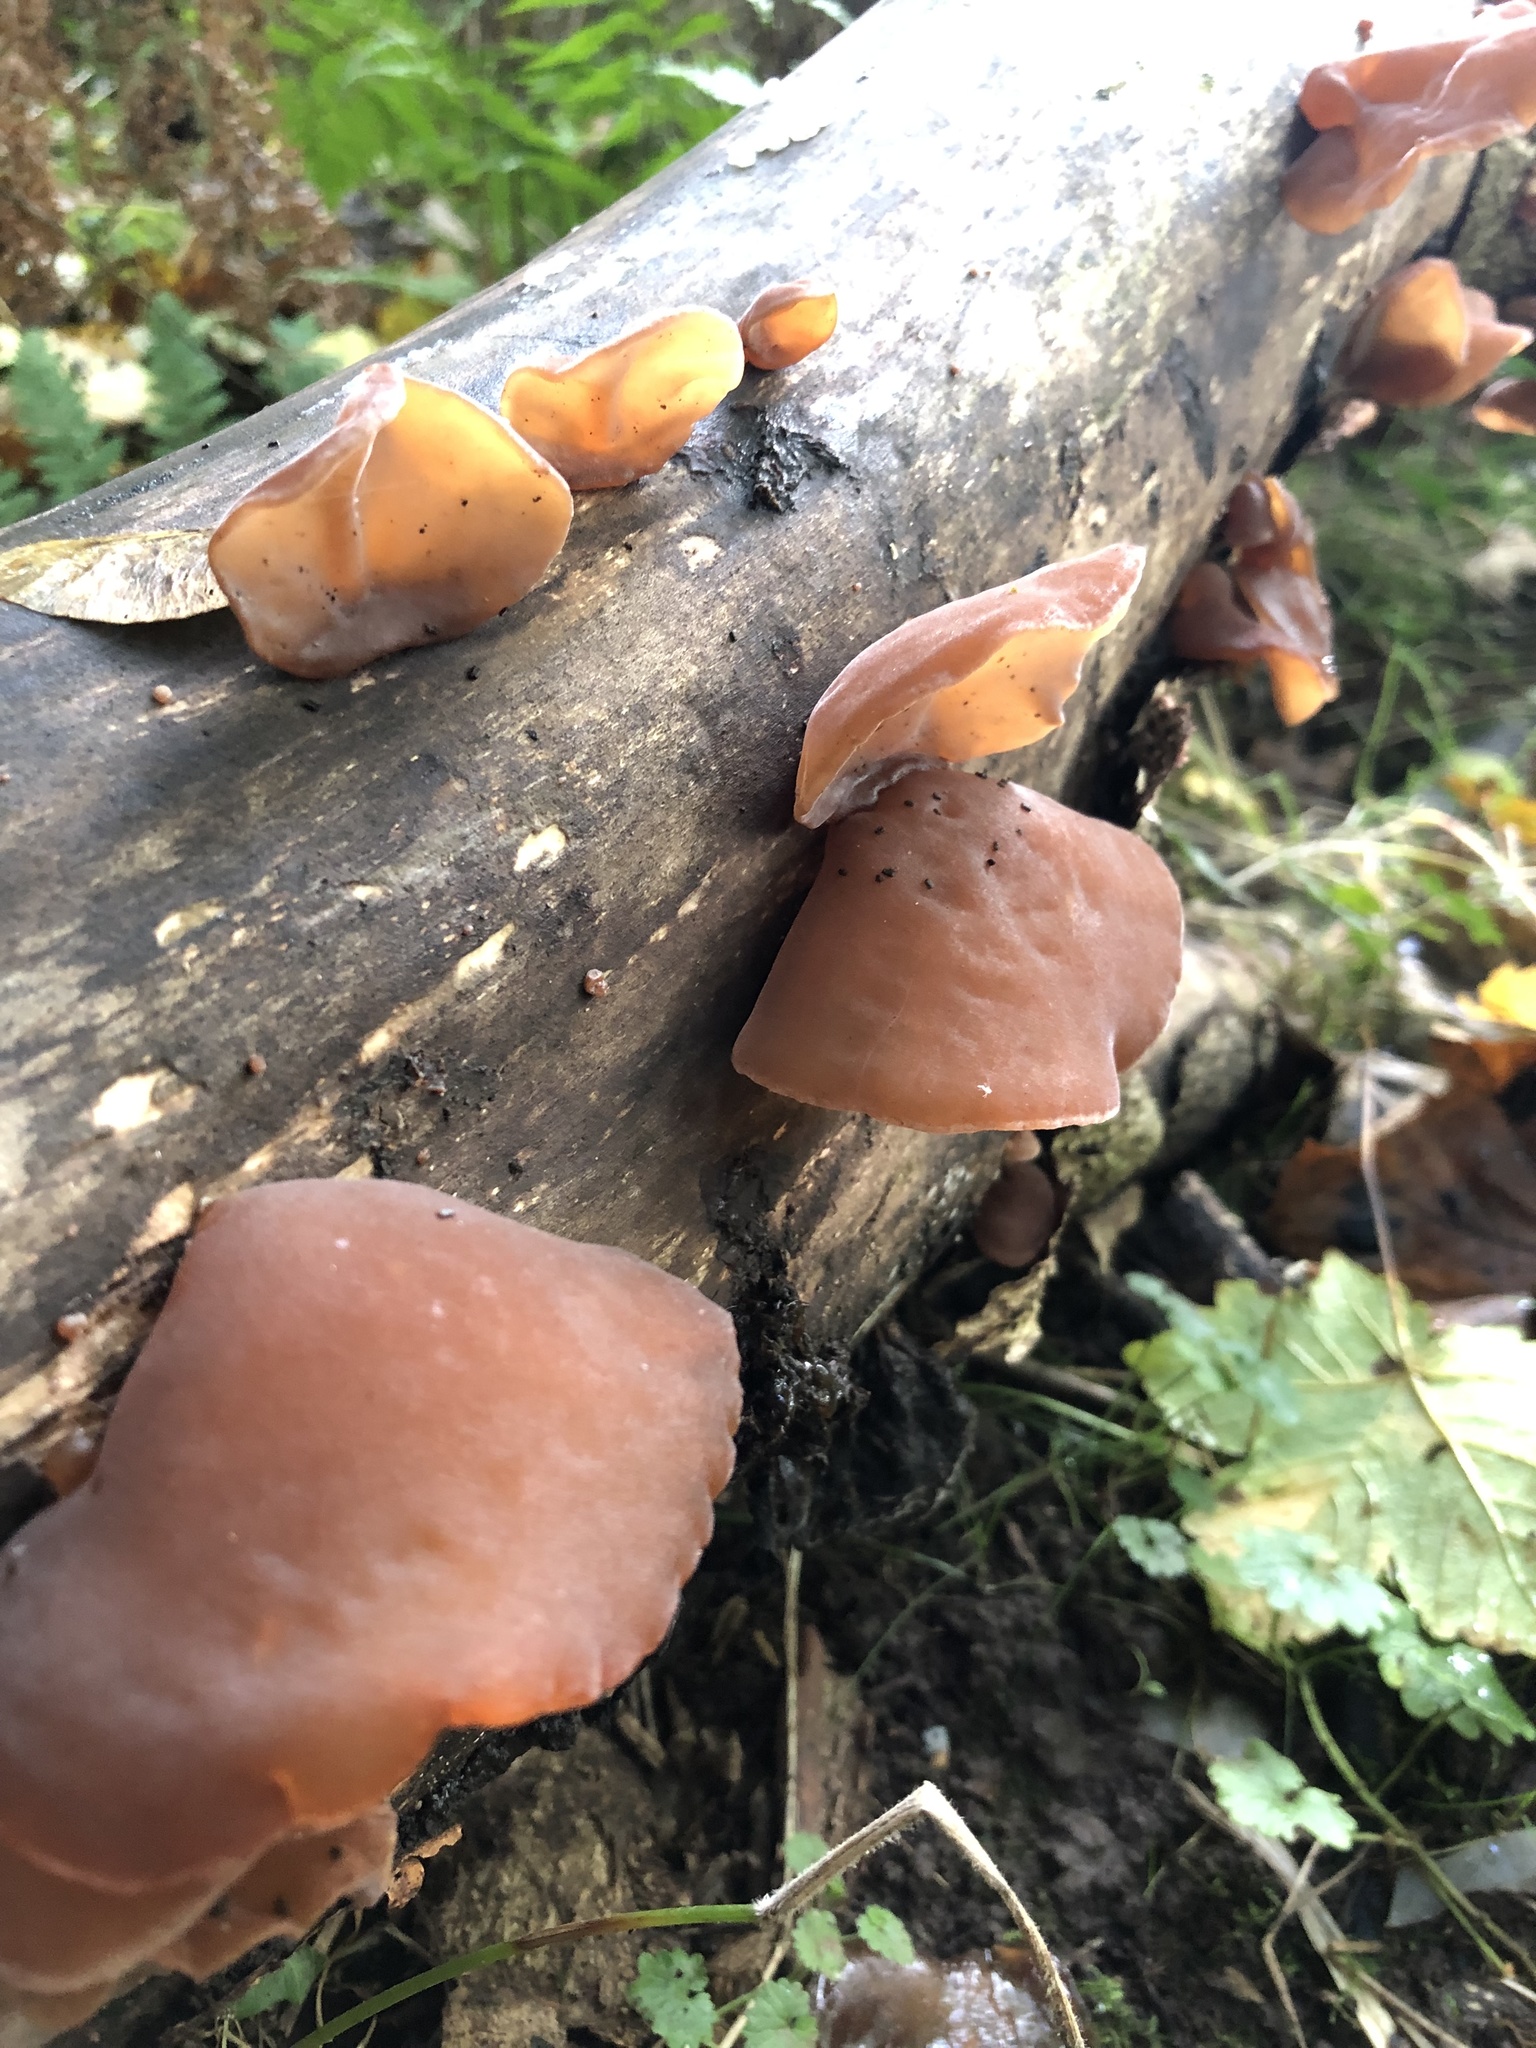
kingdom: Fungi
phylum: Basidiomycota
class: Agaricomycetes
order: Auriculariales
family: Auriculariaceae
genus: Auricularia
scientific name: Auricularia auricula-judae
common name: Jelly ear
